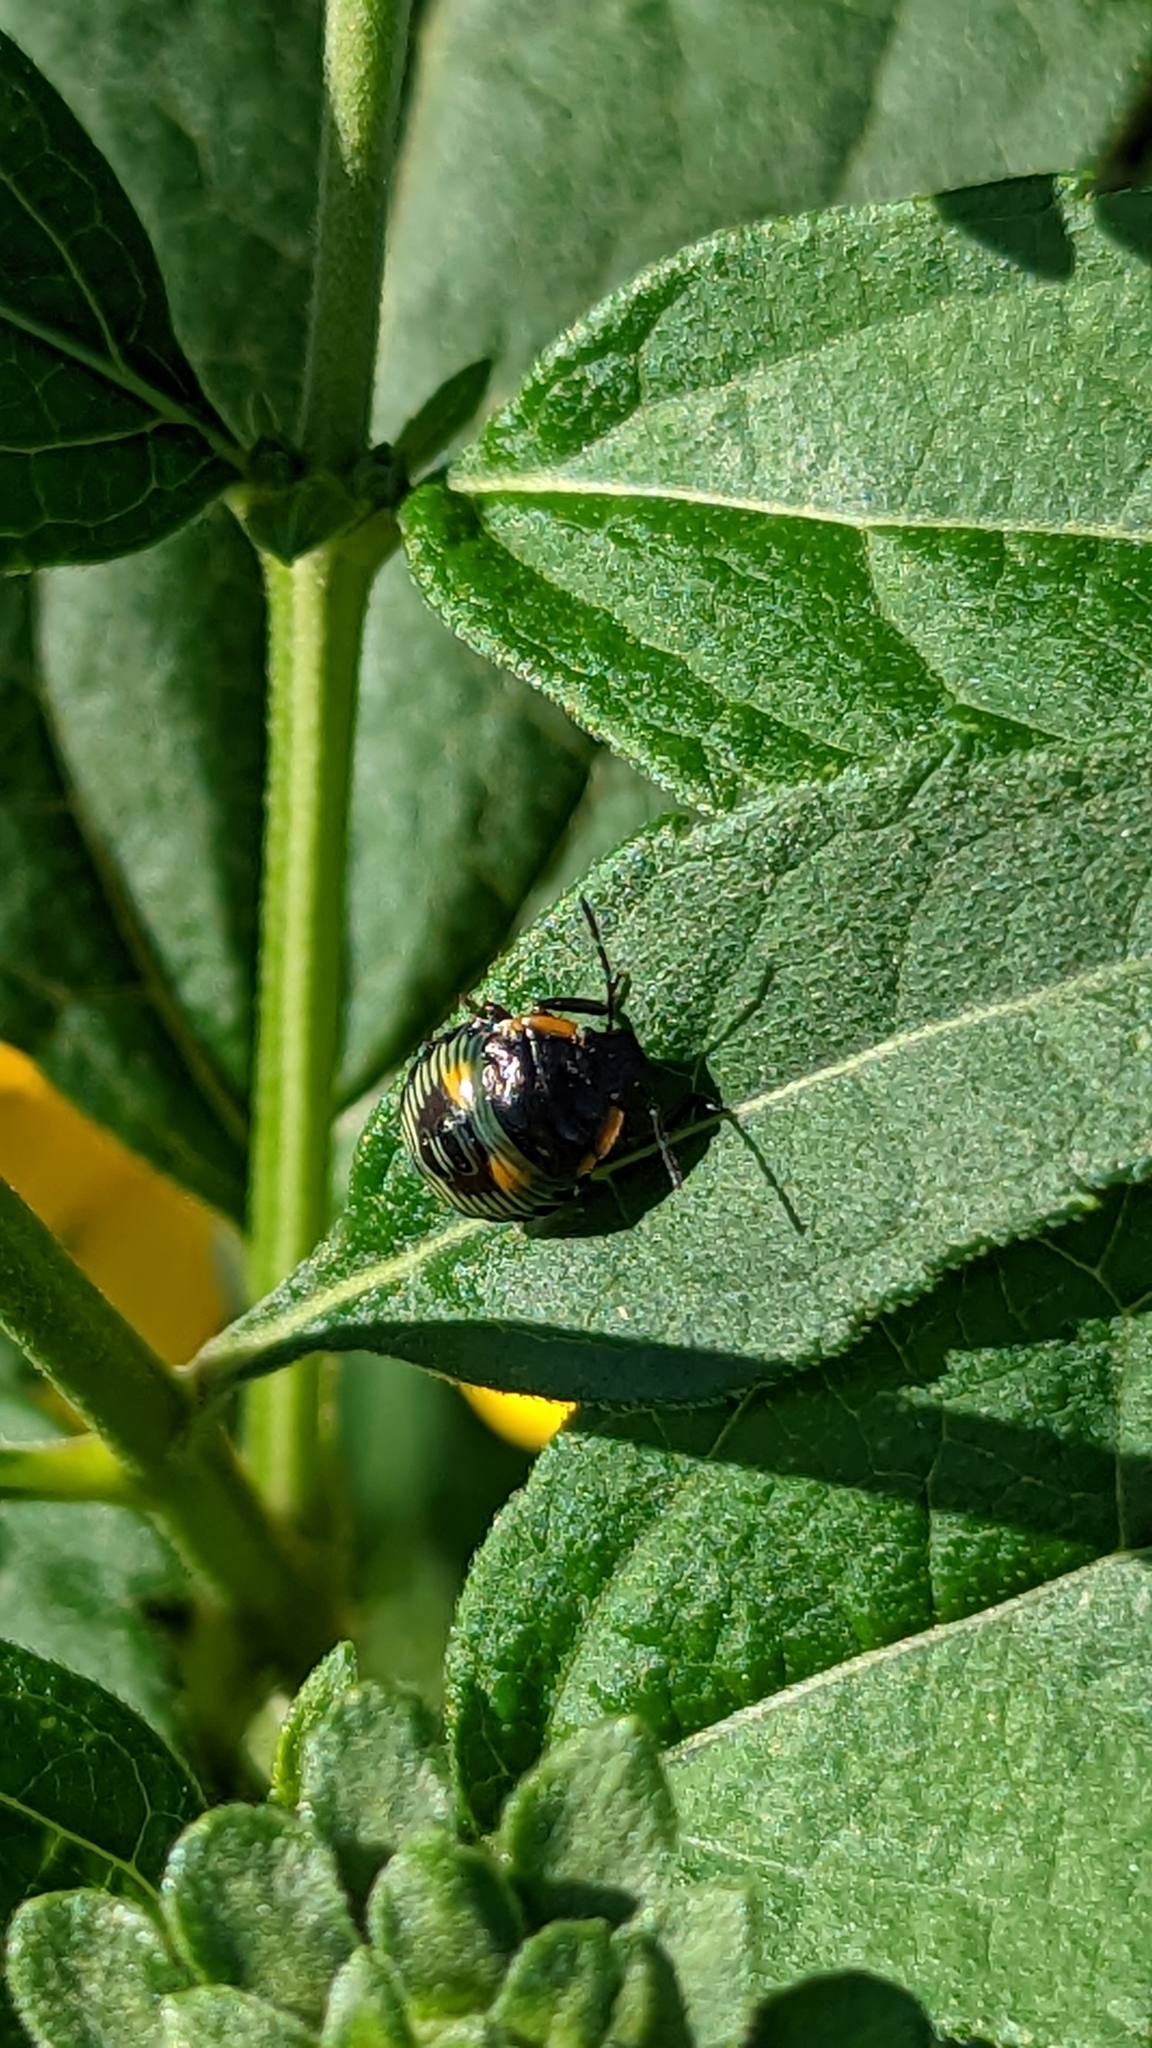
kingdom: Animalia
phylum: Arthropoda
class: Insecta
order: Hemiptera
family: Pentatomidae
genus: Chinavia
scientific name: Chinavia hilaris
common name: Green stink bug
